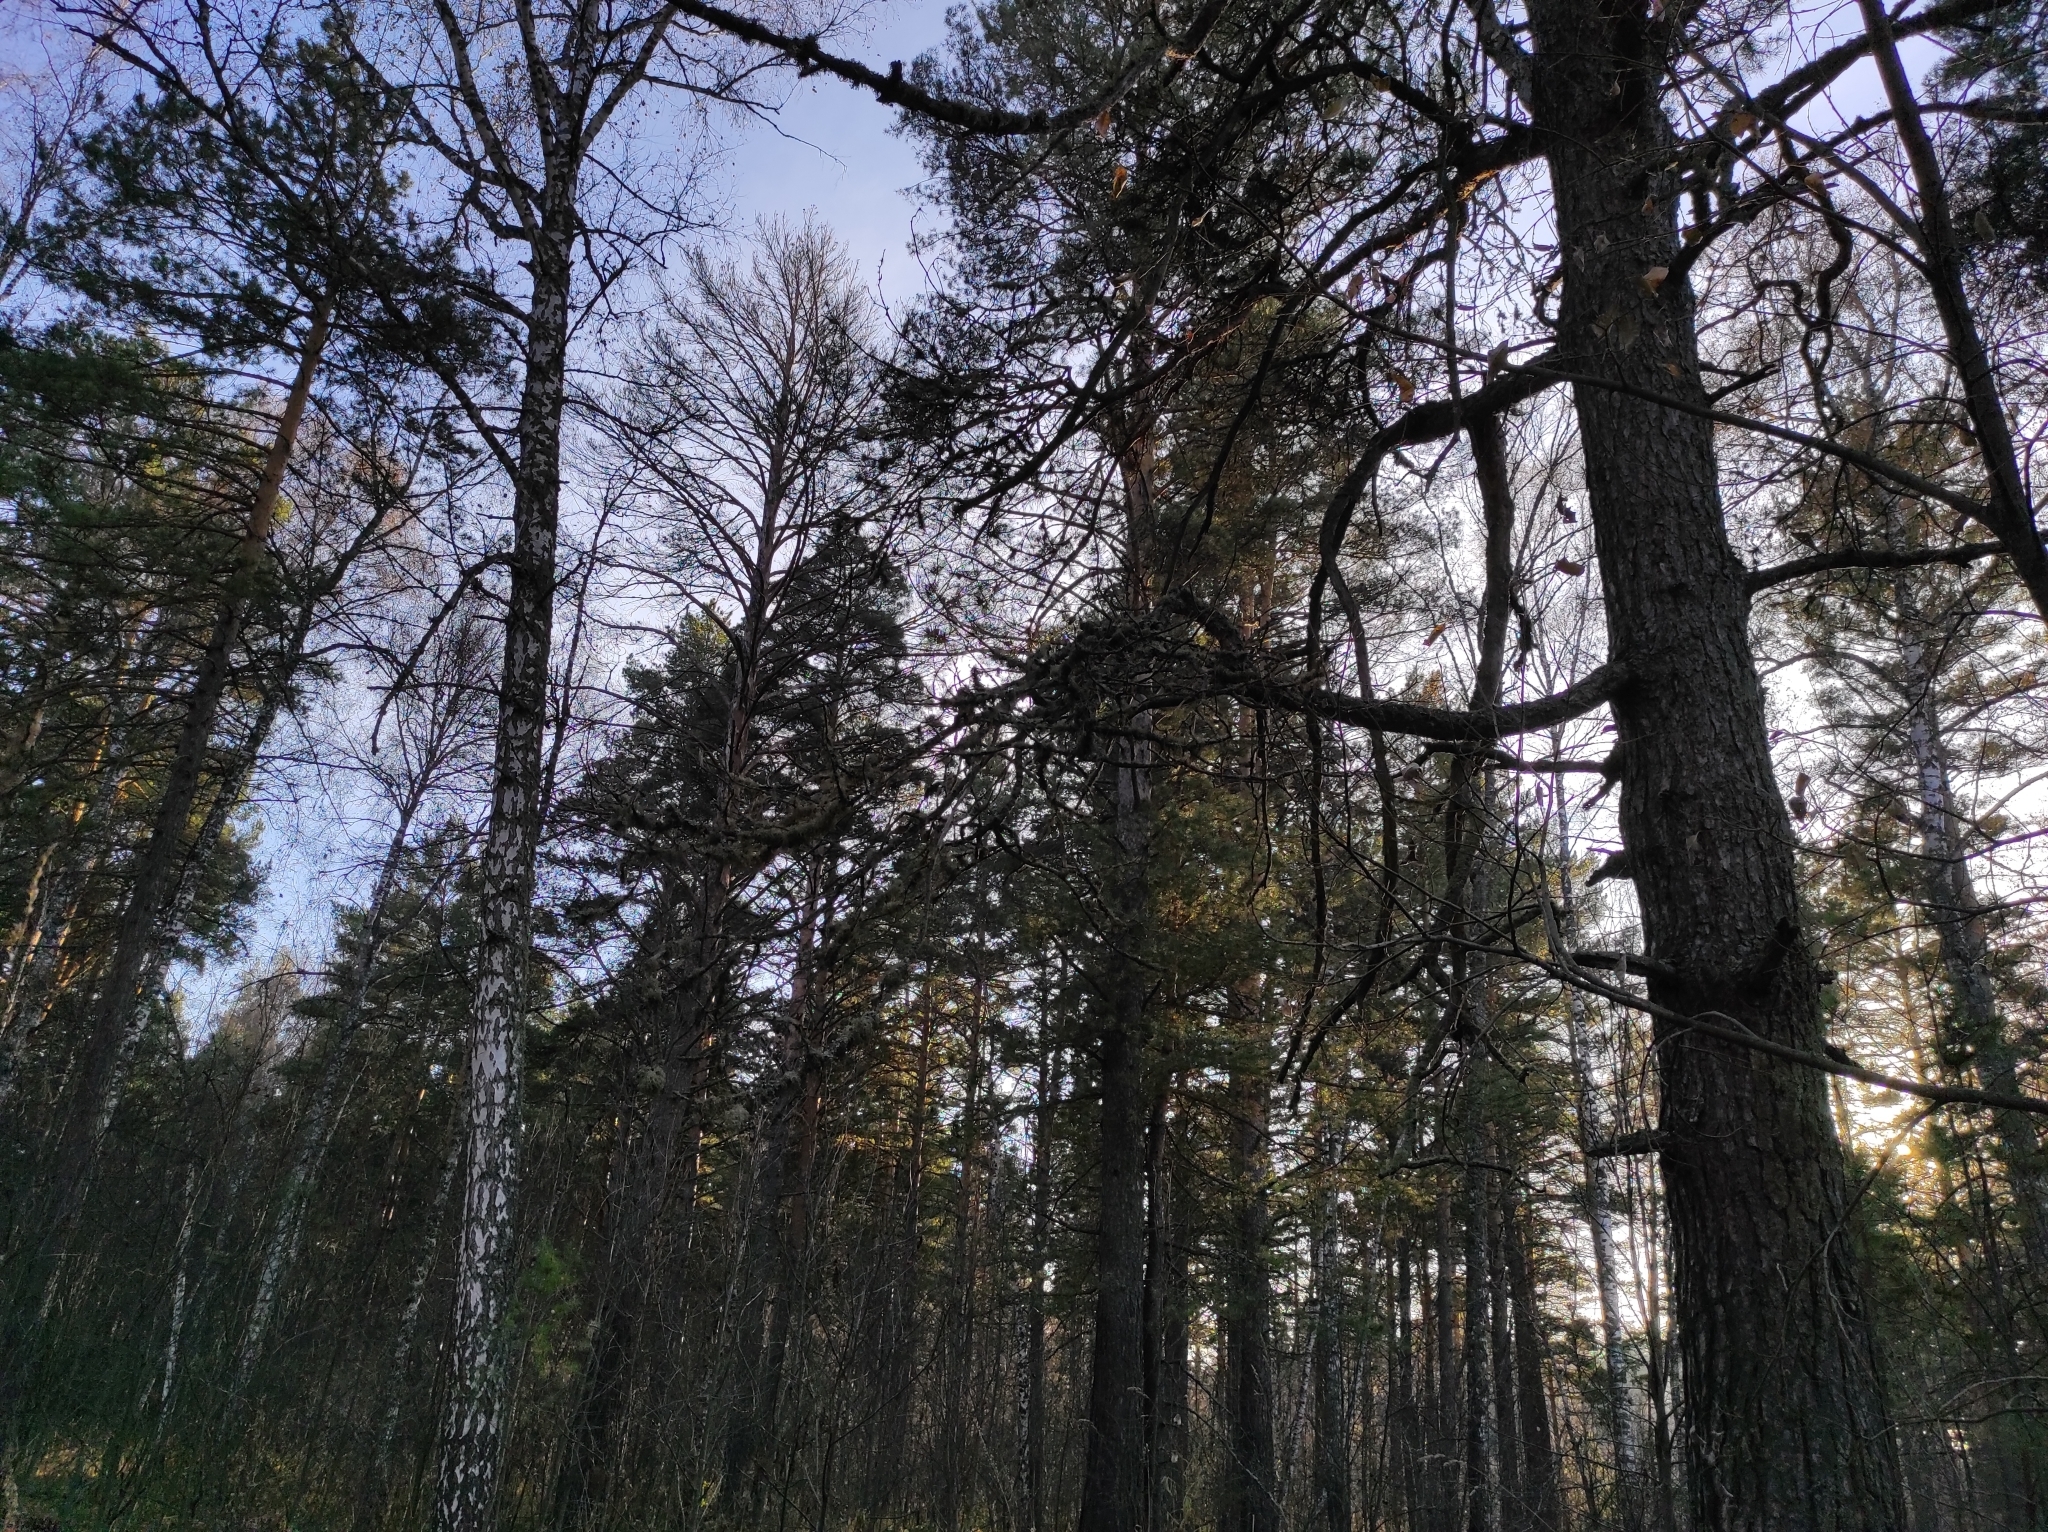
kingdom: Plantae
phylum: Tracheophyta
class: Pinopsida
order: Pinales
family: Pinaceae
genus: Pinus
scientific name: Pinus sylvestris
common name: Scots pine
